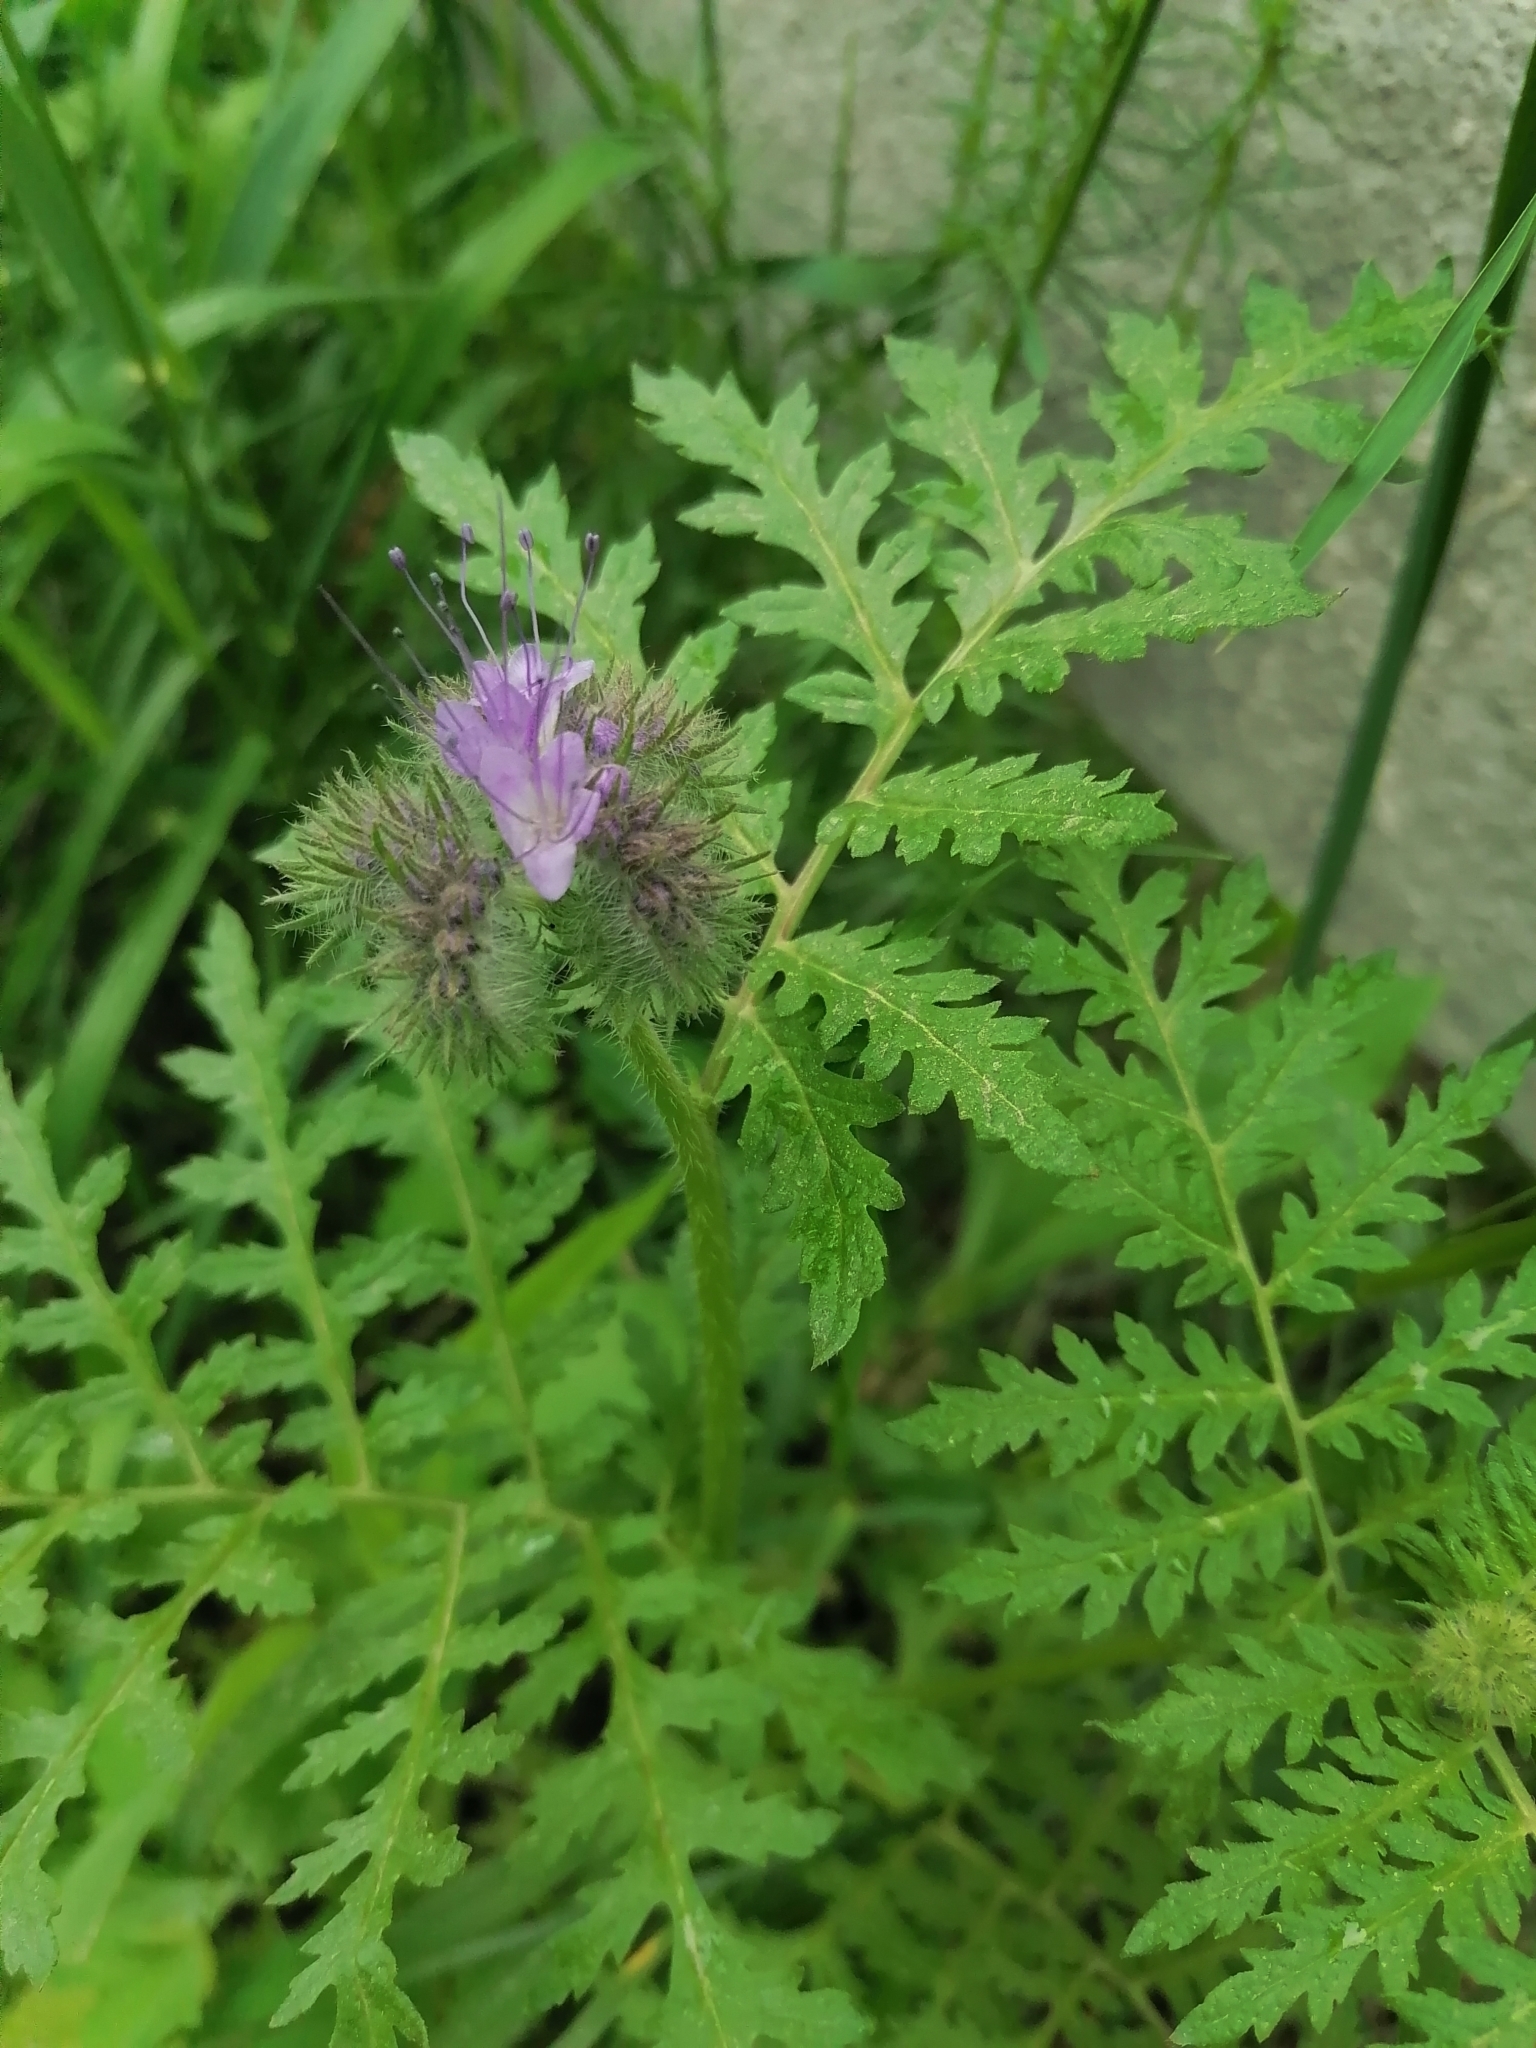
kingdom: Plantae
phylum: Tracheophyta
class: Magnoliopsida
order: Boraginales
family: Hydrophyllaceae
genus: Phacelia
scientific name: Phacelia tanacetifolia
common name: Phacelia
